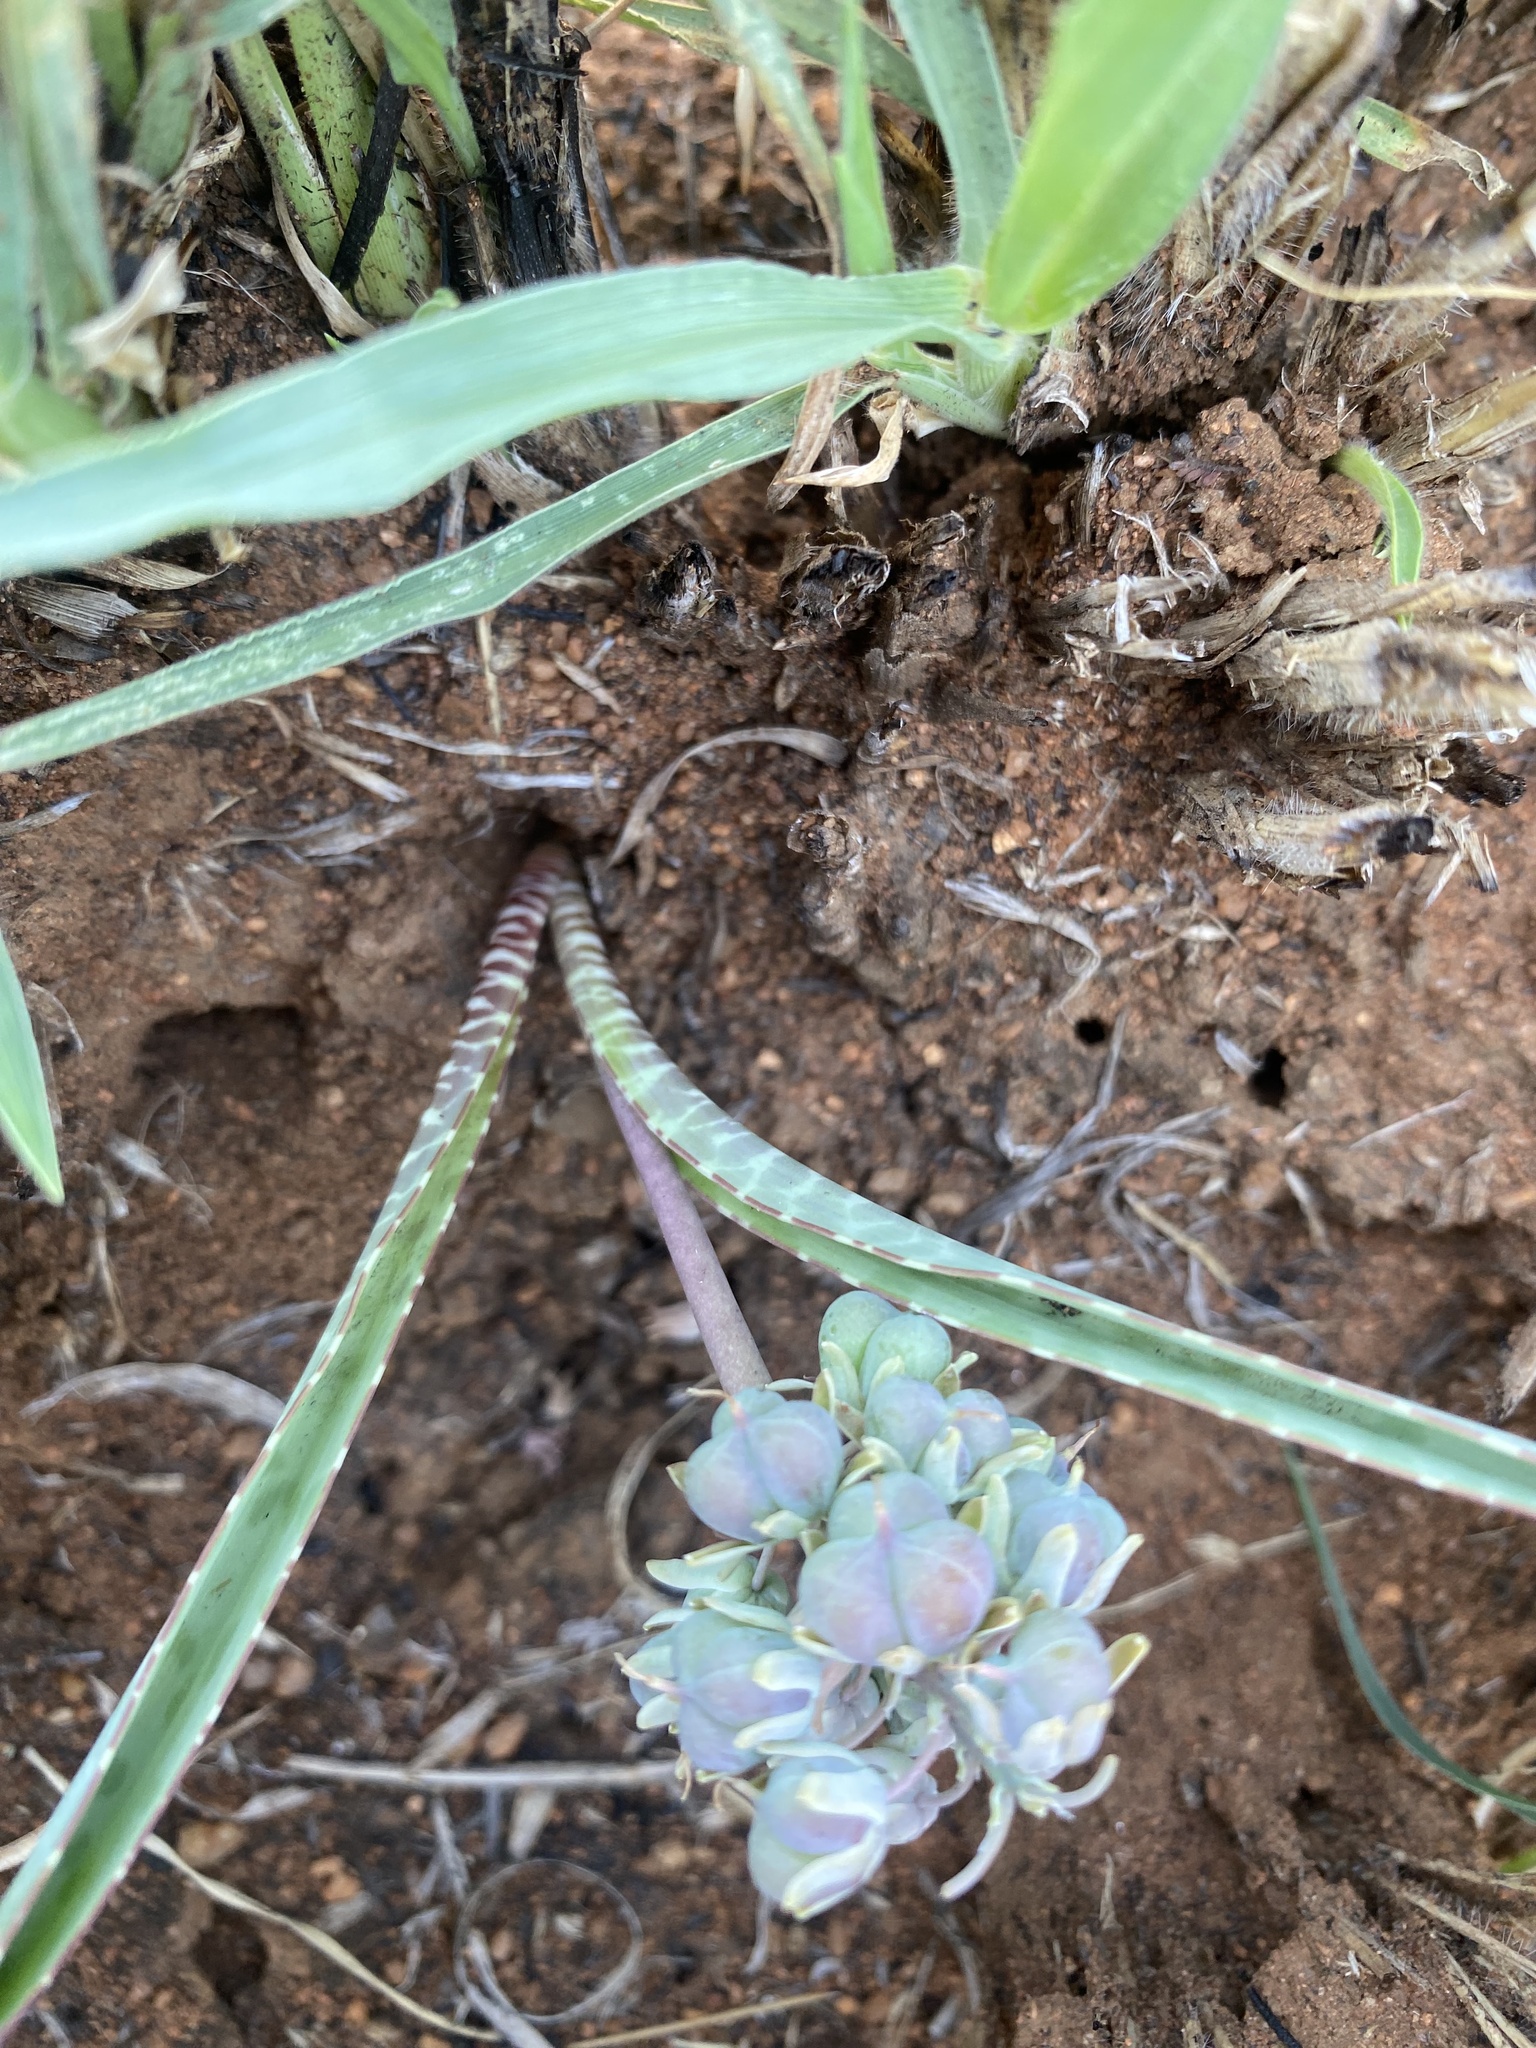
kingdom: Plantae
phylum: Tracheophyta
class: Liliopsida
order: Asparagales
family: Asparagaceae
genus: Ledebouria
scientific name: Ledebouria glauca
